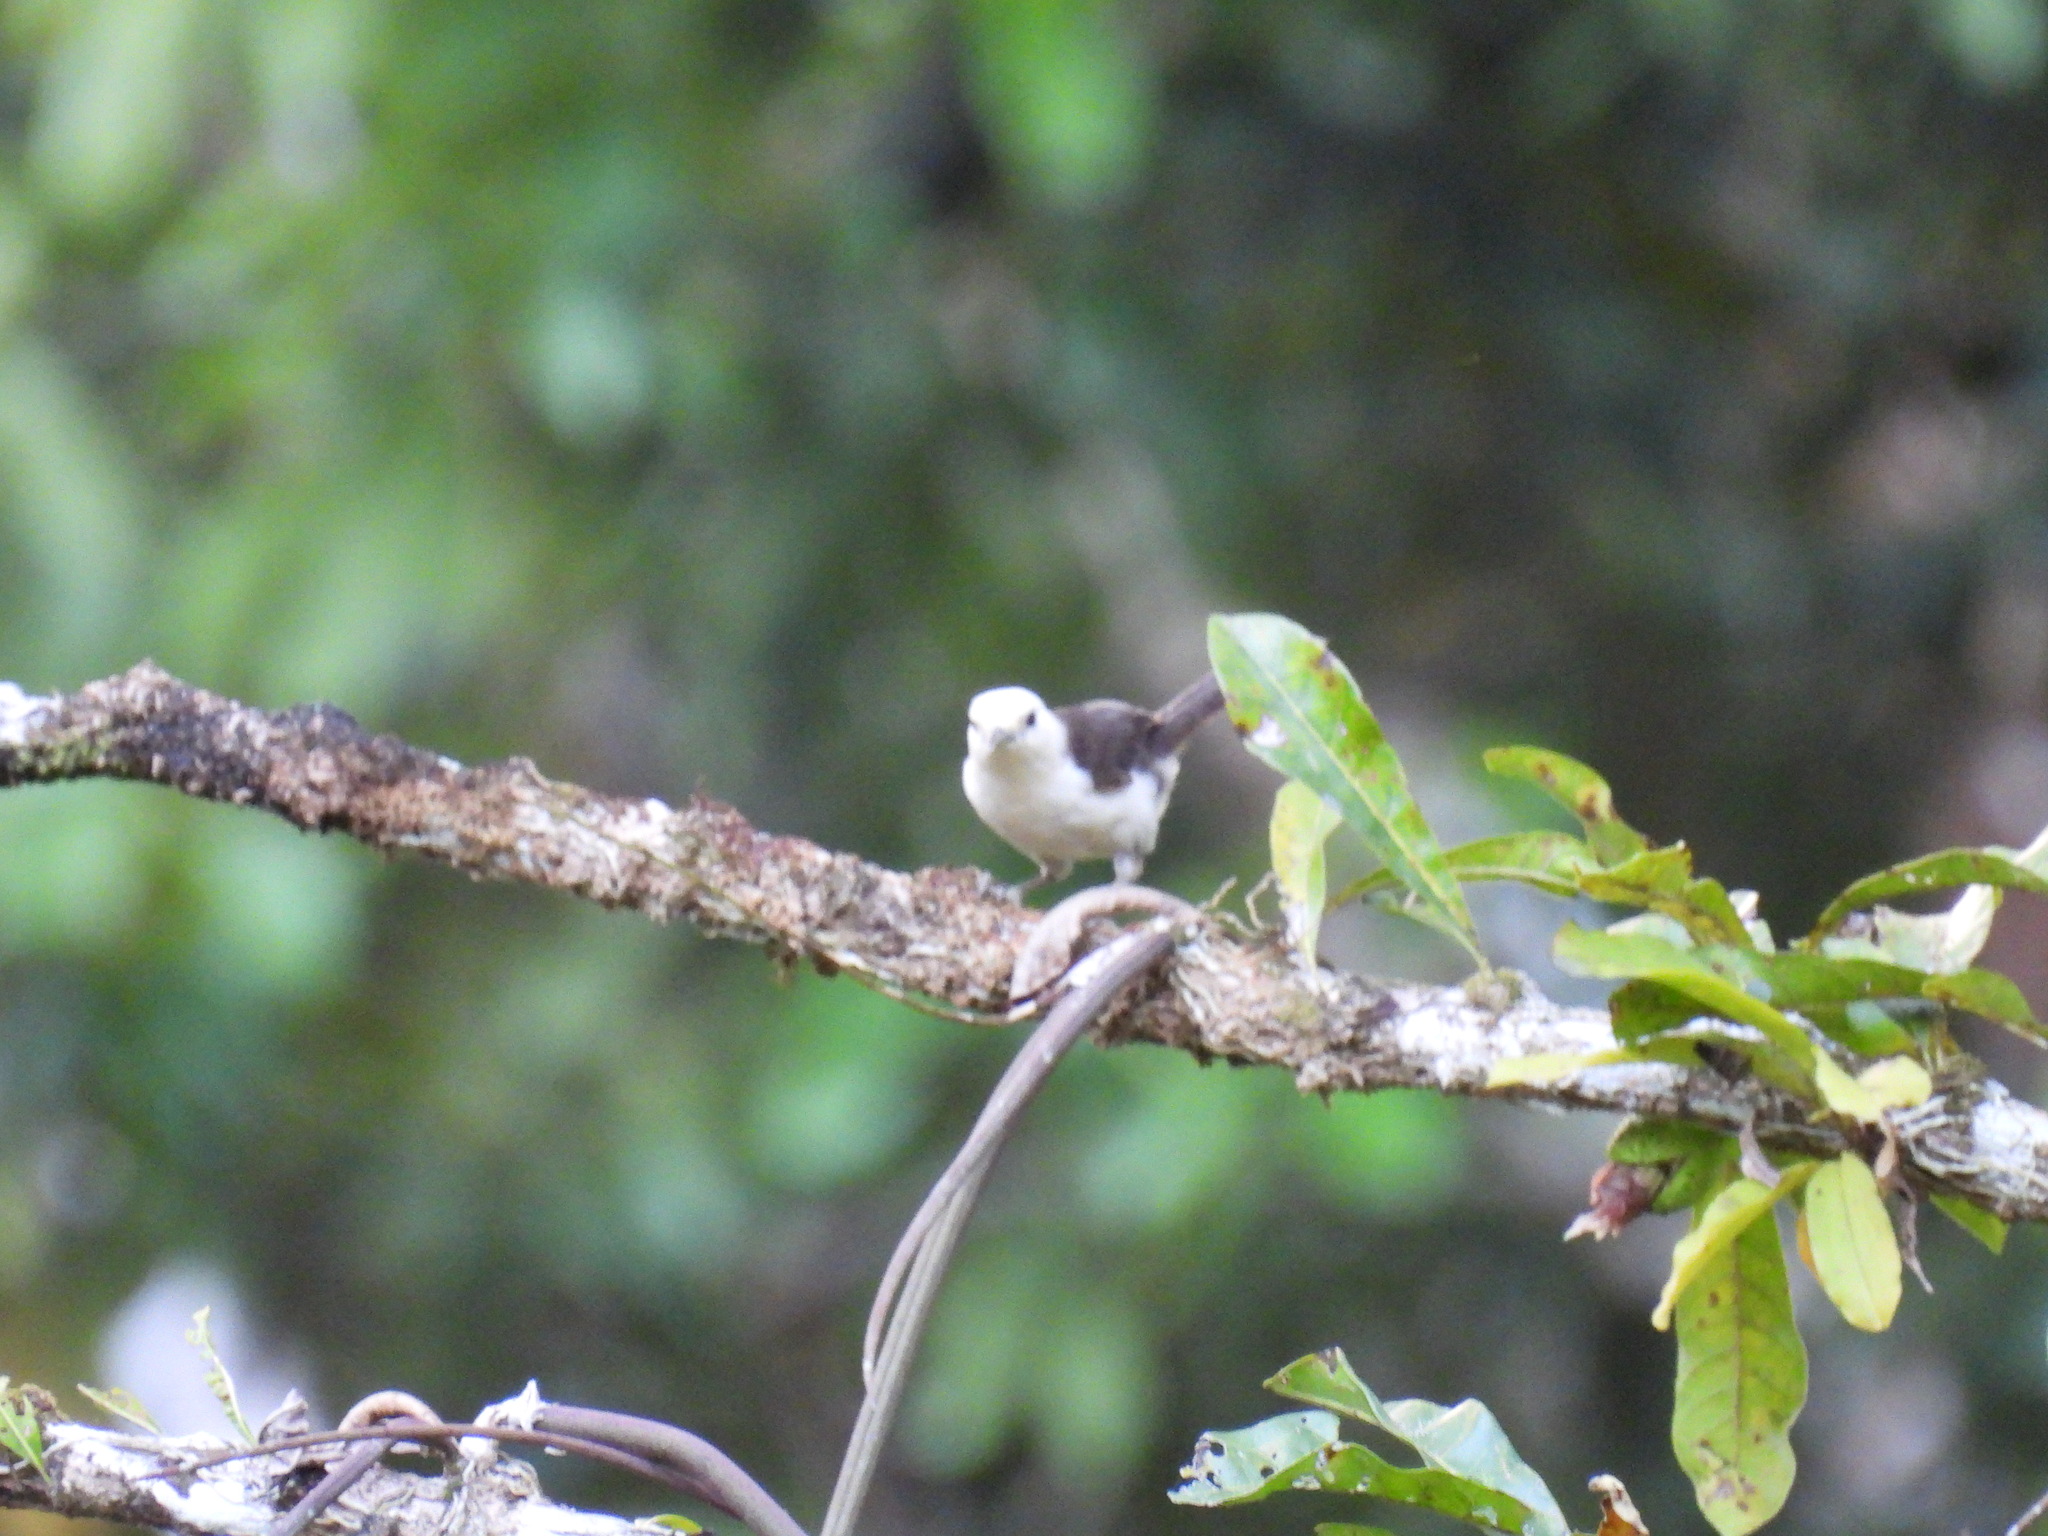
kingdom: Animalia
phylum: Chordata
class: Aves
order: Passeriformes
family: Troglodytidae
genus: Campylorhynchus
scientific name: Campylorhynchus albobrunneus
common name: White-headed wren
